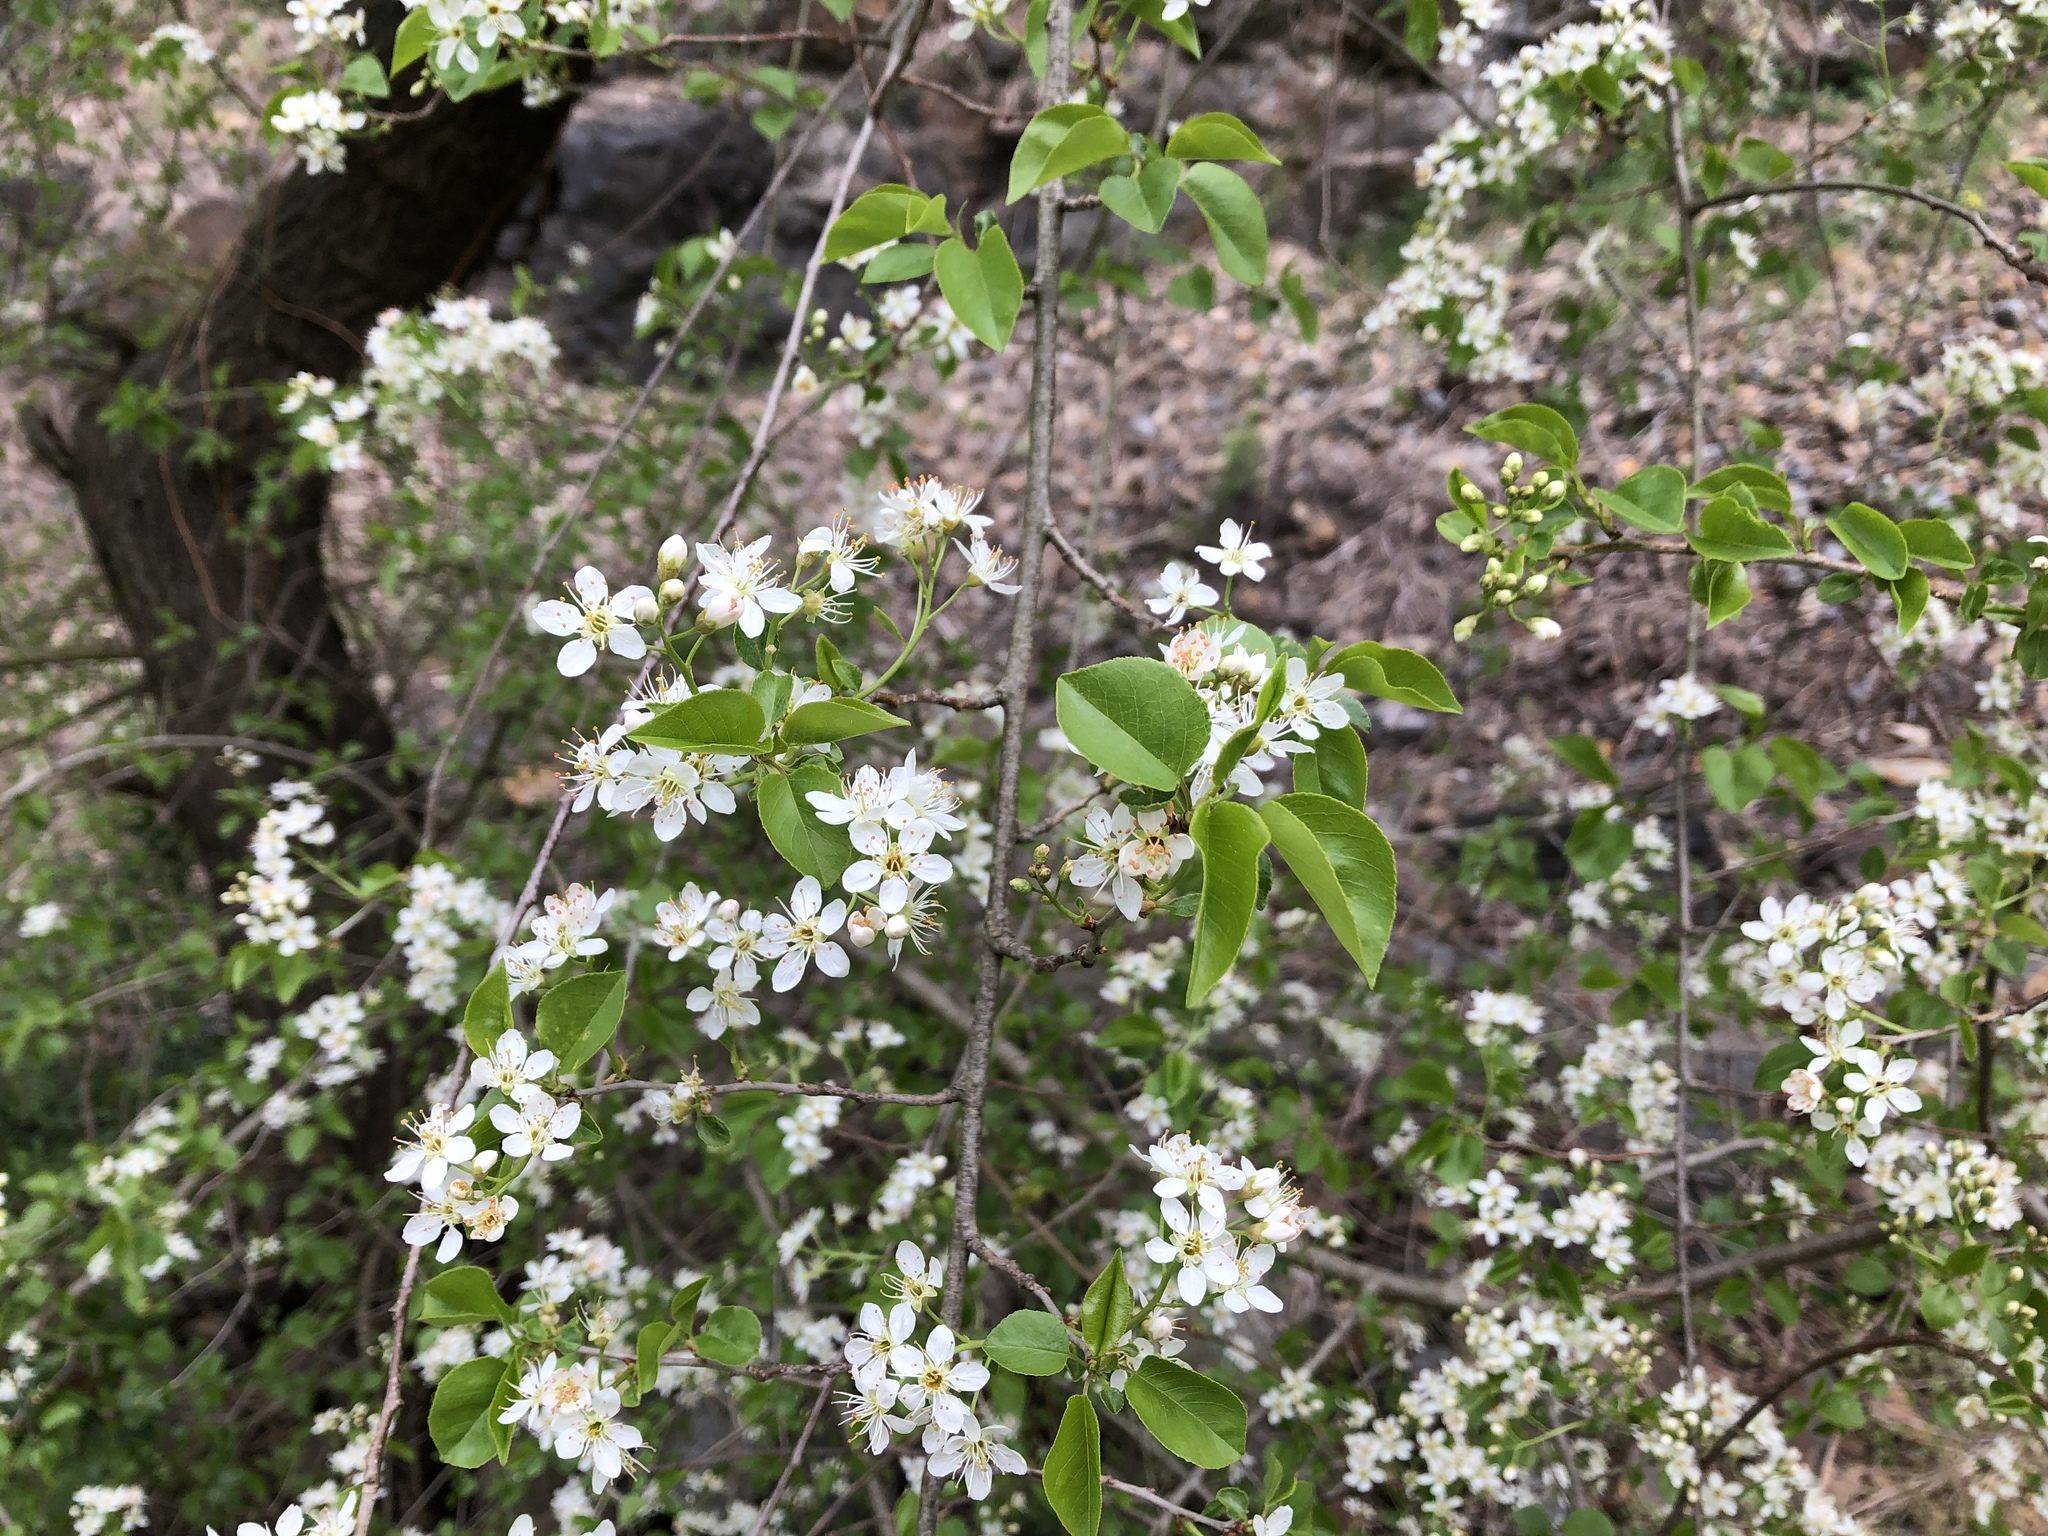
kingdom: Plantae
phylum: Tracheophyta
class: Magnoliopsida
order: Rosales
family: Rosaceae
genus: Prunus
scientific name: Prunus mahaleb
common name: Mahaleb cherry
